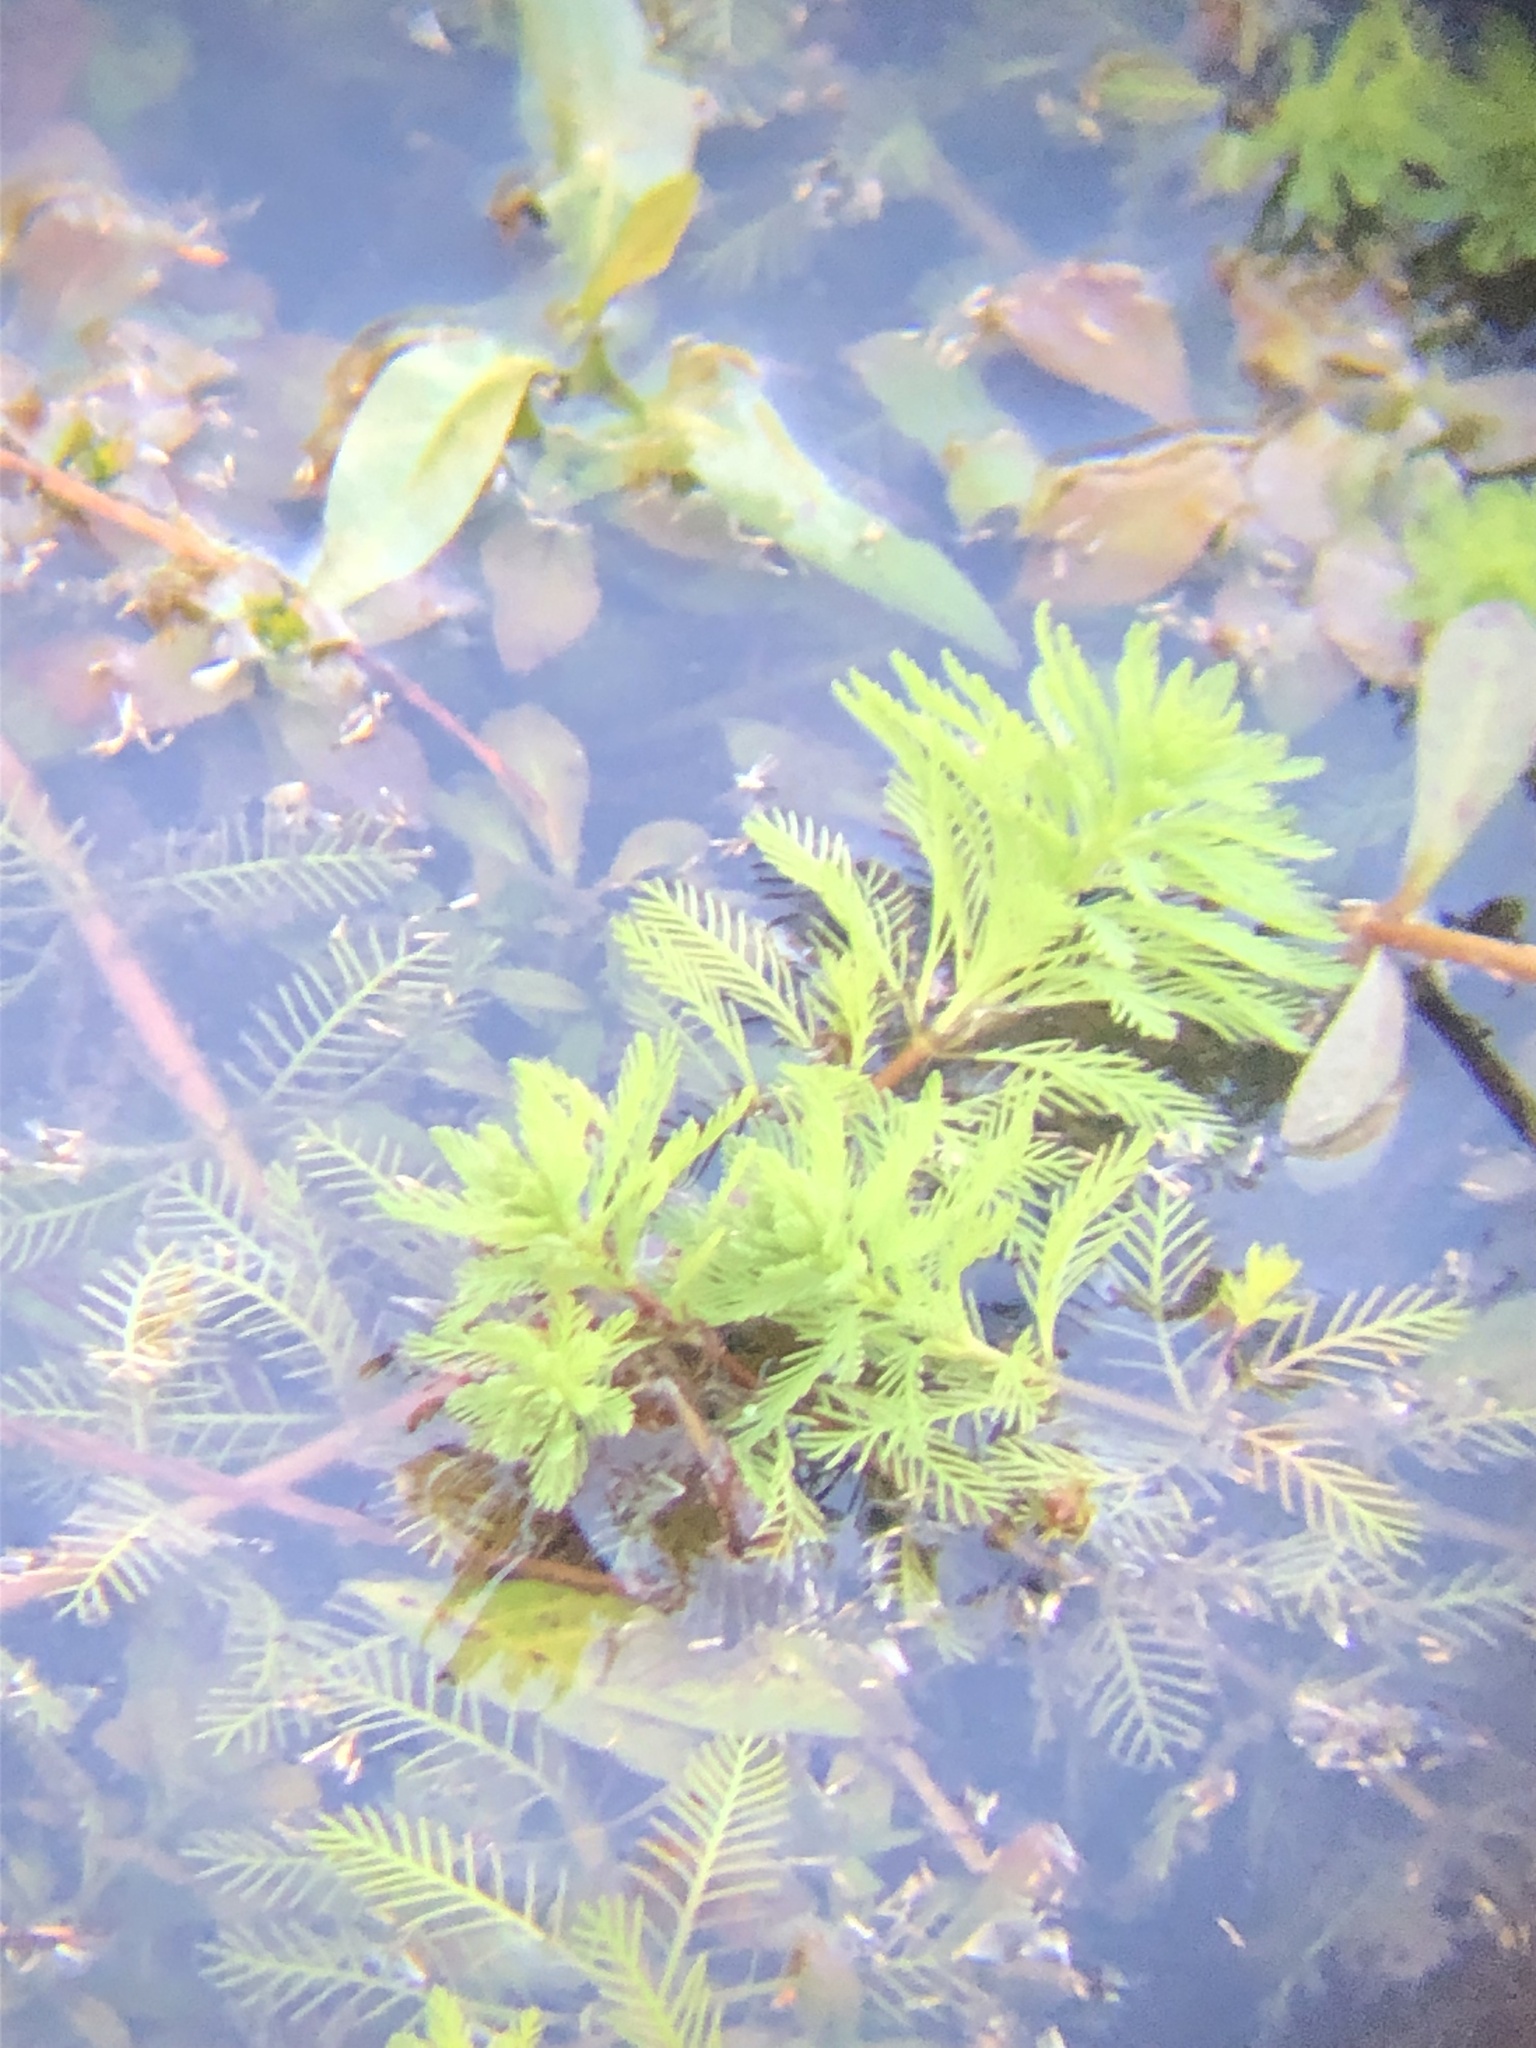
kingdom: Plantae
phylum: Tracheophyta
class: Magnoliopsida
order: Saxifragales
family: Haloragaceae
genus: Myriophyllum
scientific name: Myriophyllum aquaticum
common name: Parrot's feather
